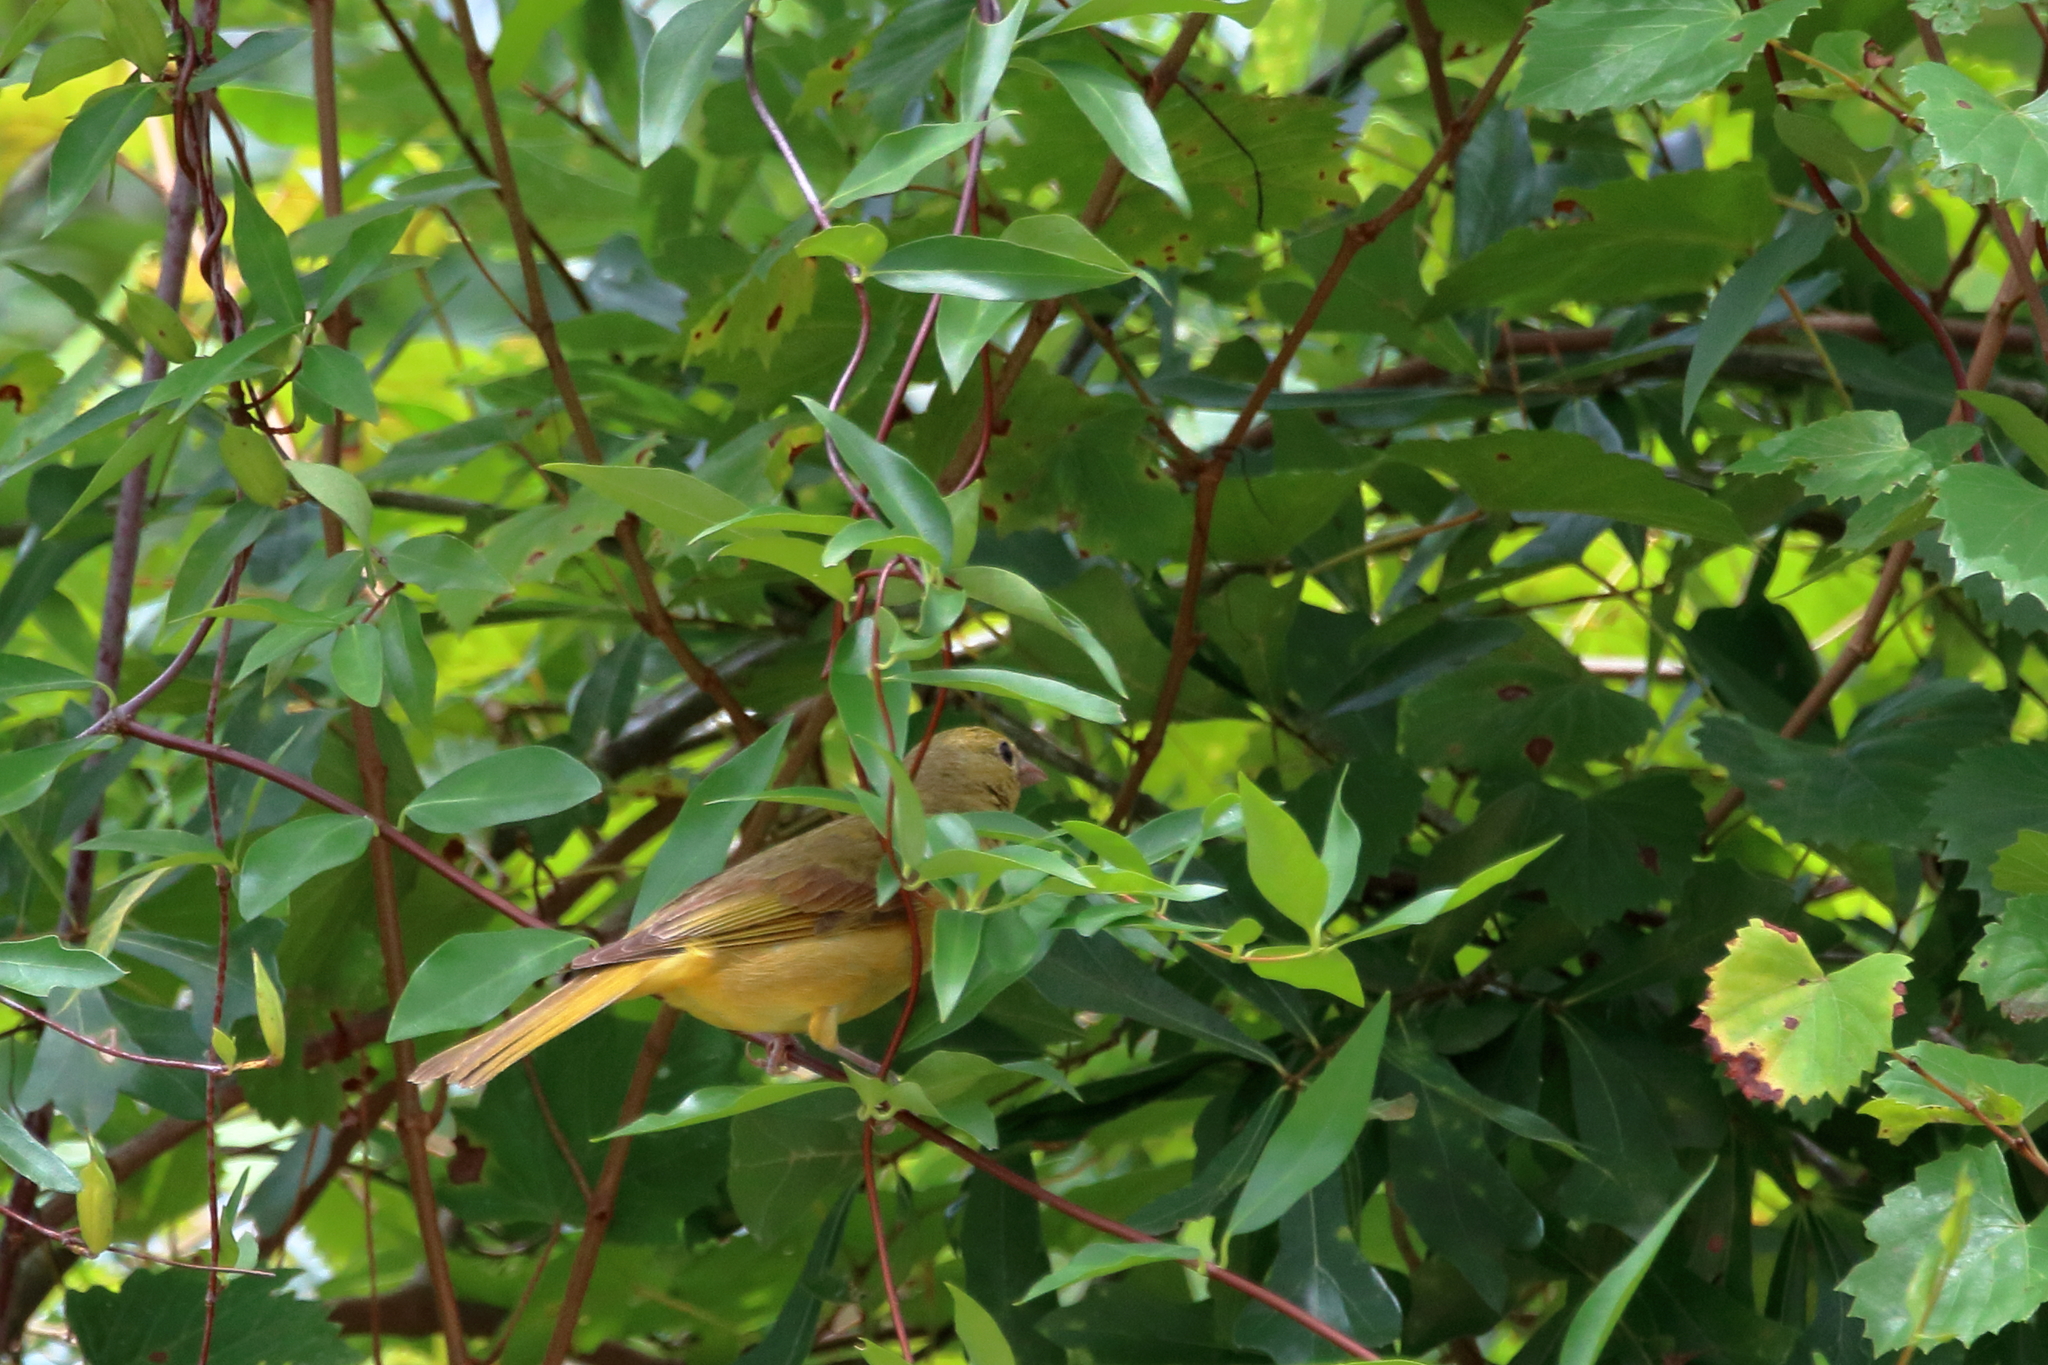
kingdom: Animalia
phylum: Chordata
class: Aves
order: Passeriformes
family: Cardinalidae
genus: Piranga
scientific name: Piranga rubra
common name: Summer tanager
